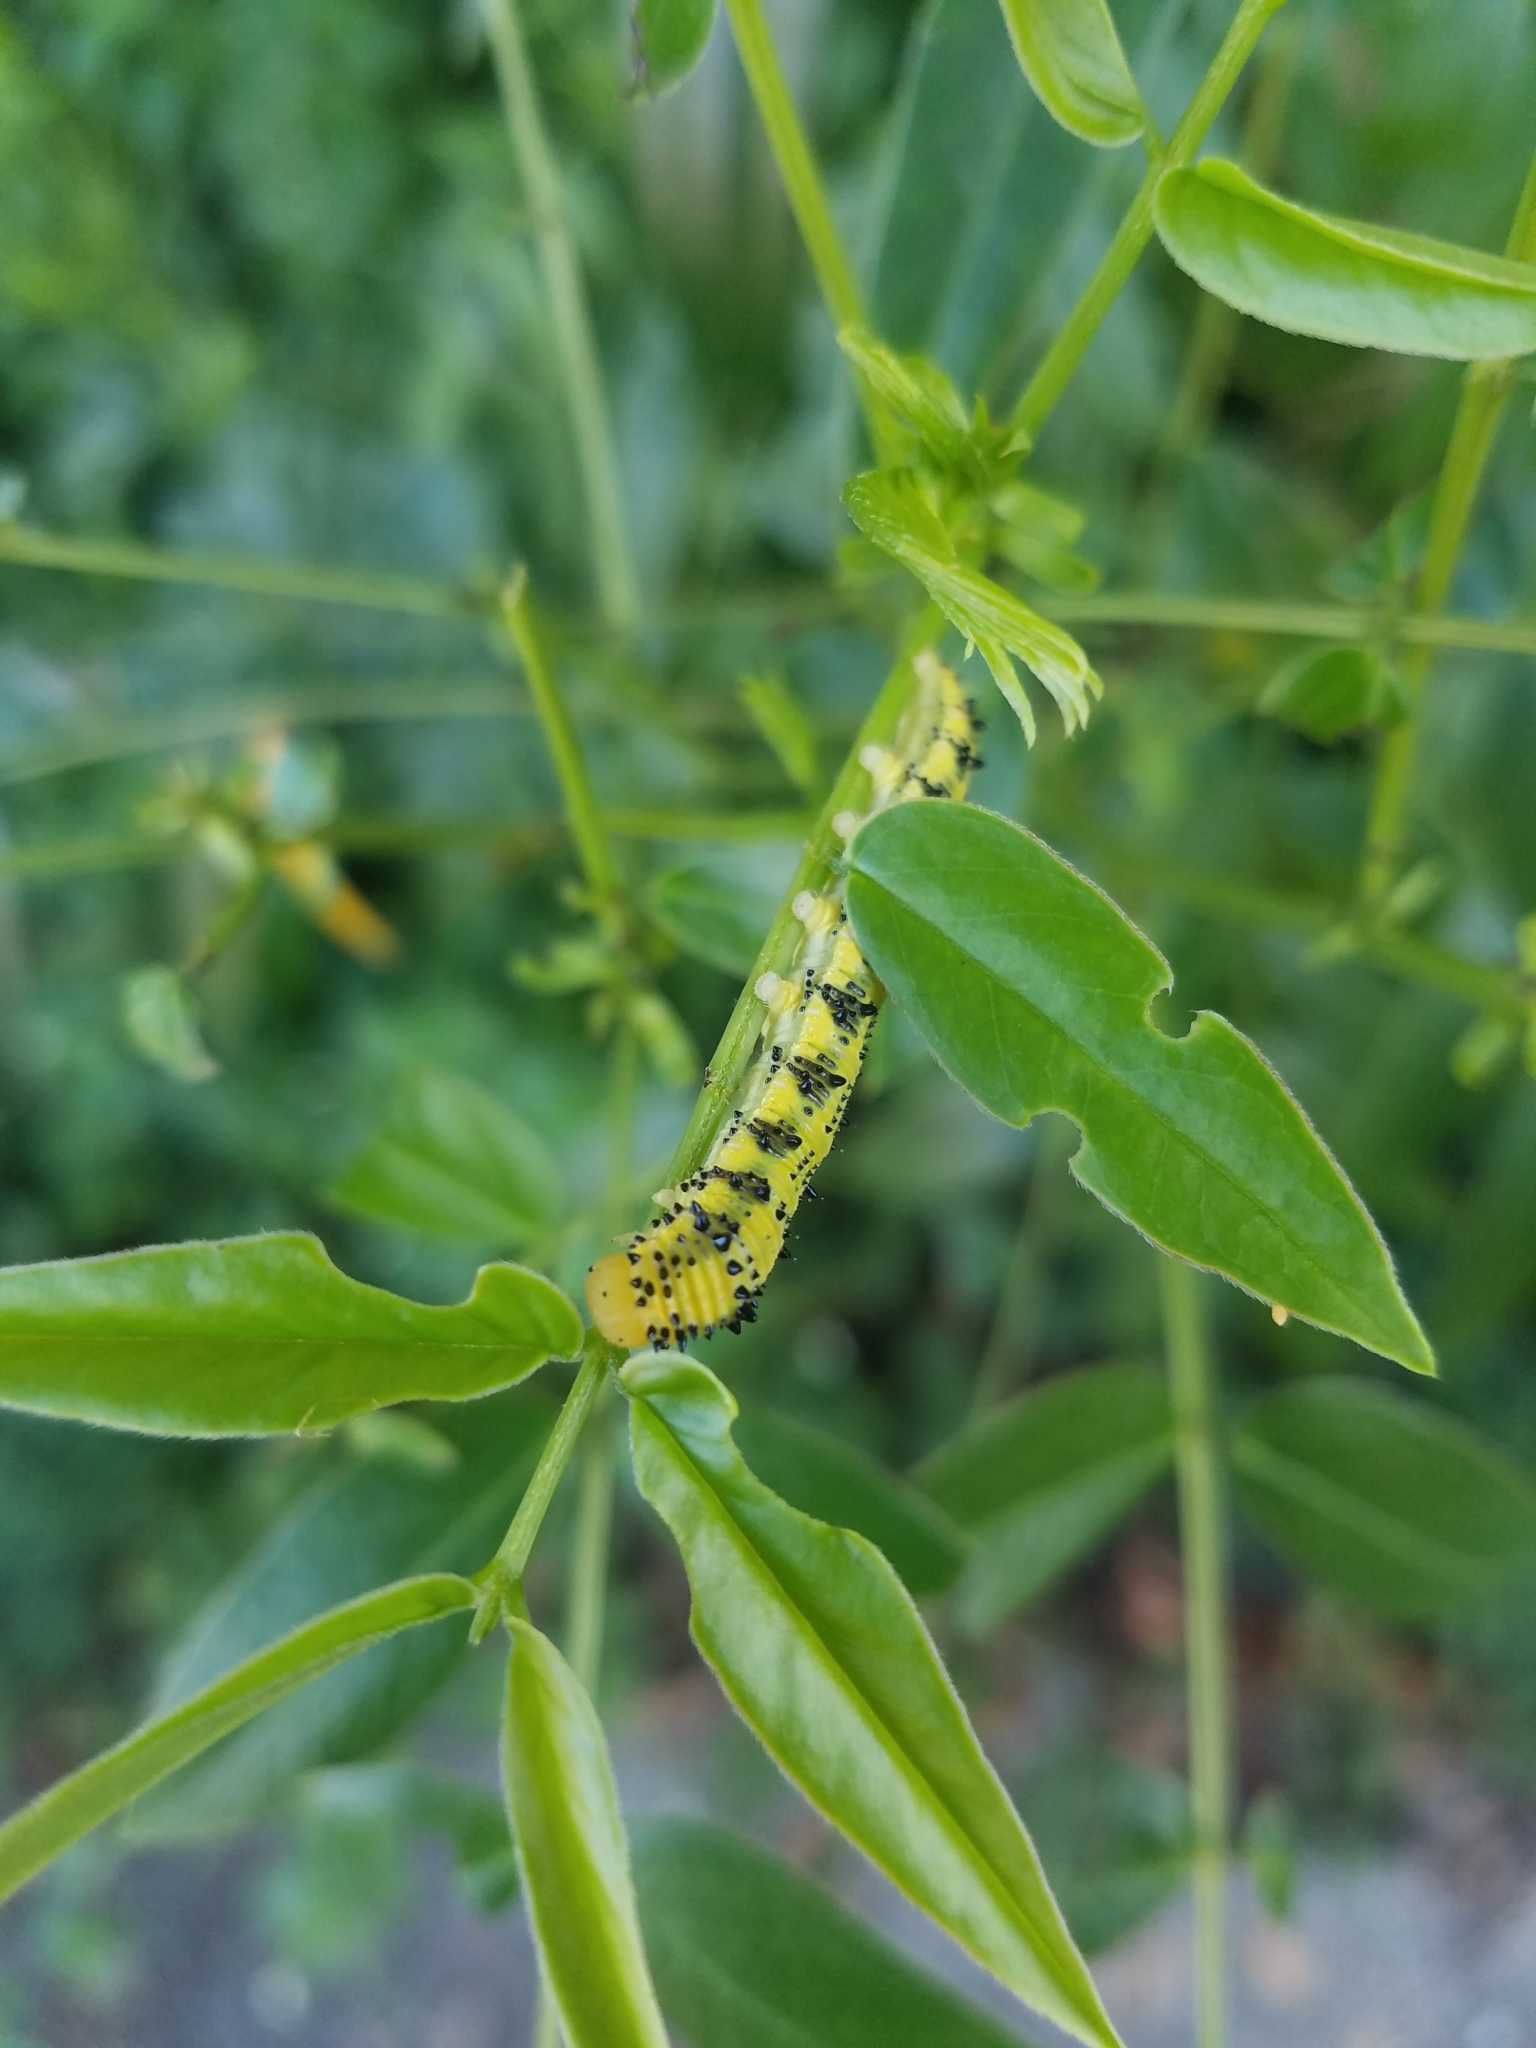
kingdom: Animalia
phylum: Arthropoda
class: Insecta
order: Lepidoptera
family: Pieridae
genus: Phoebis
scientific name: Phoebis philea
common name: Orange-barred giant sulphur
